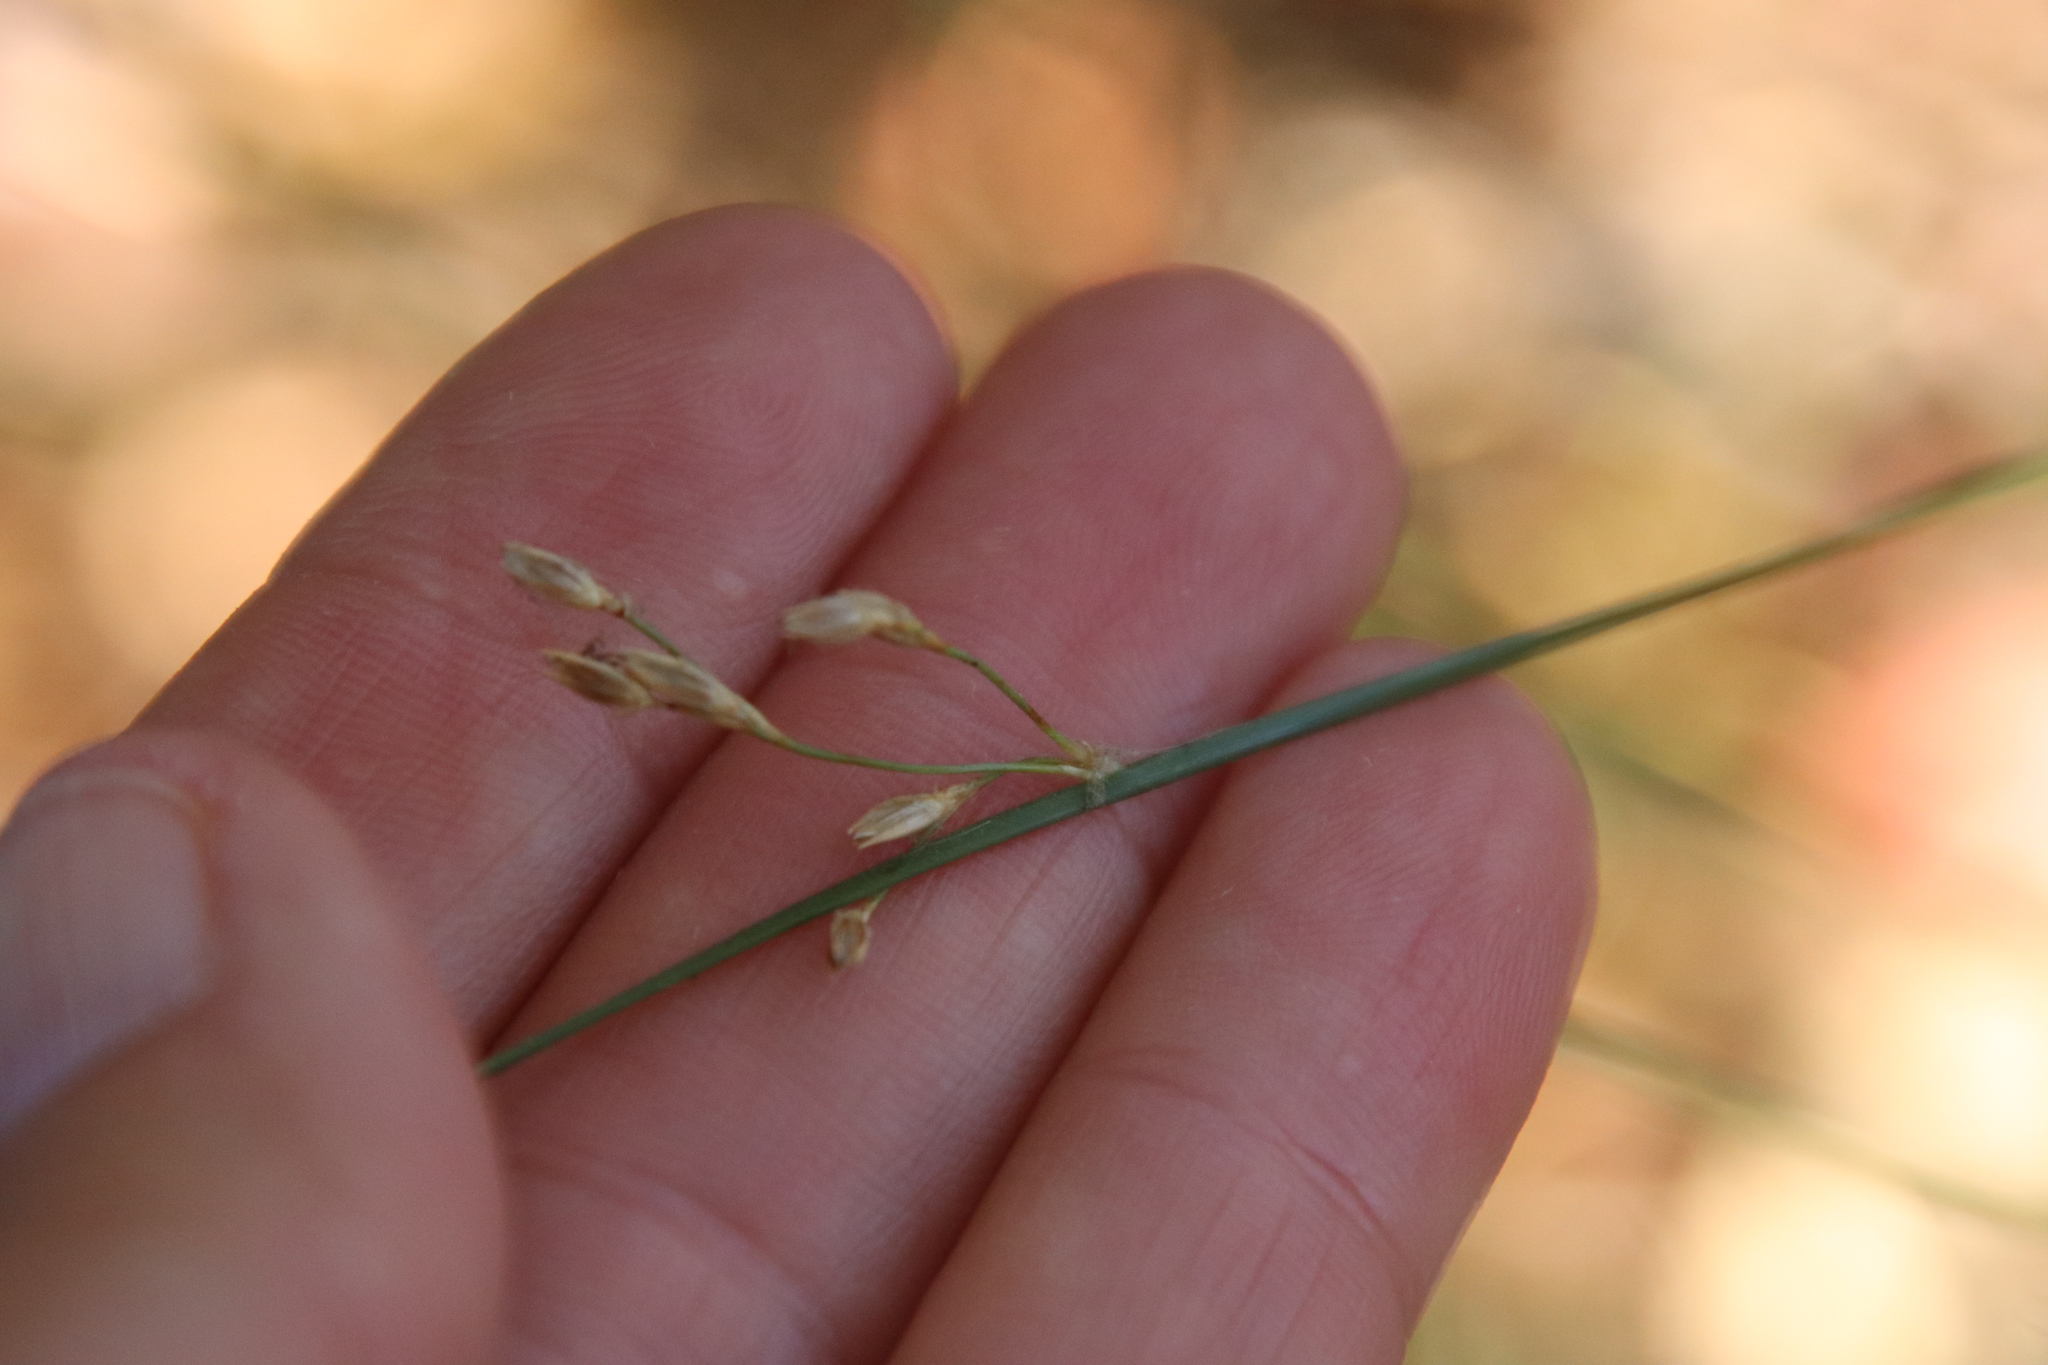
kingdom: Plantae
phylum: Tracheophyta
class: Liliopsida
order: Poales
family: Juncaceae
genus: Juncus
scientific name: Juncus balticus
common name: Baltic rush
